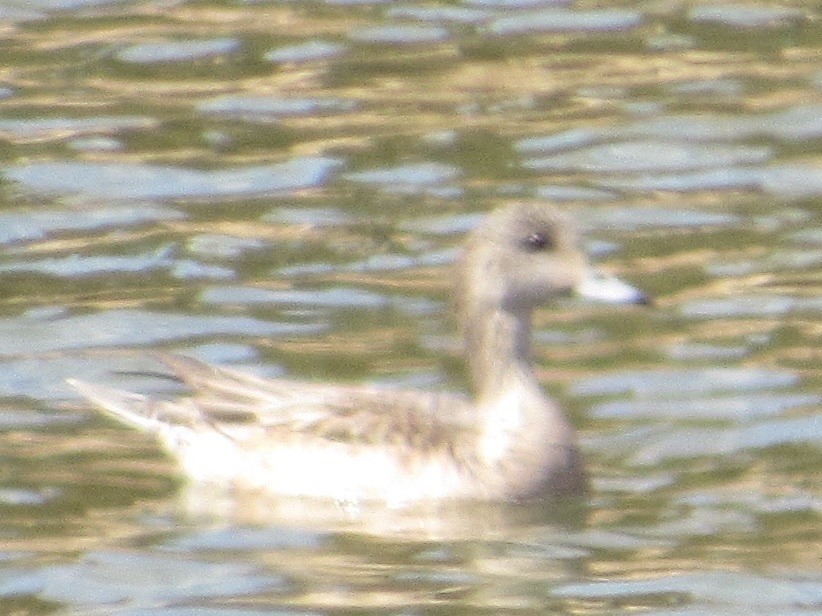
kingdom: Animalia
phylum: Chordata
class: Aves
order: Anseriformes
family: Anatidae
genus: Mareca
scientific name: Mareca americana
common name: American wigeon
